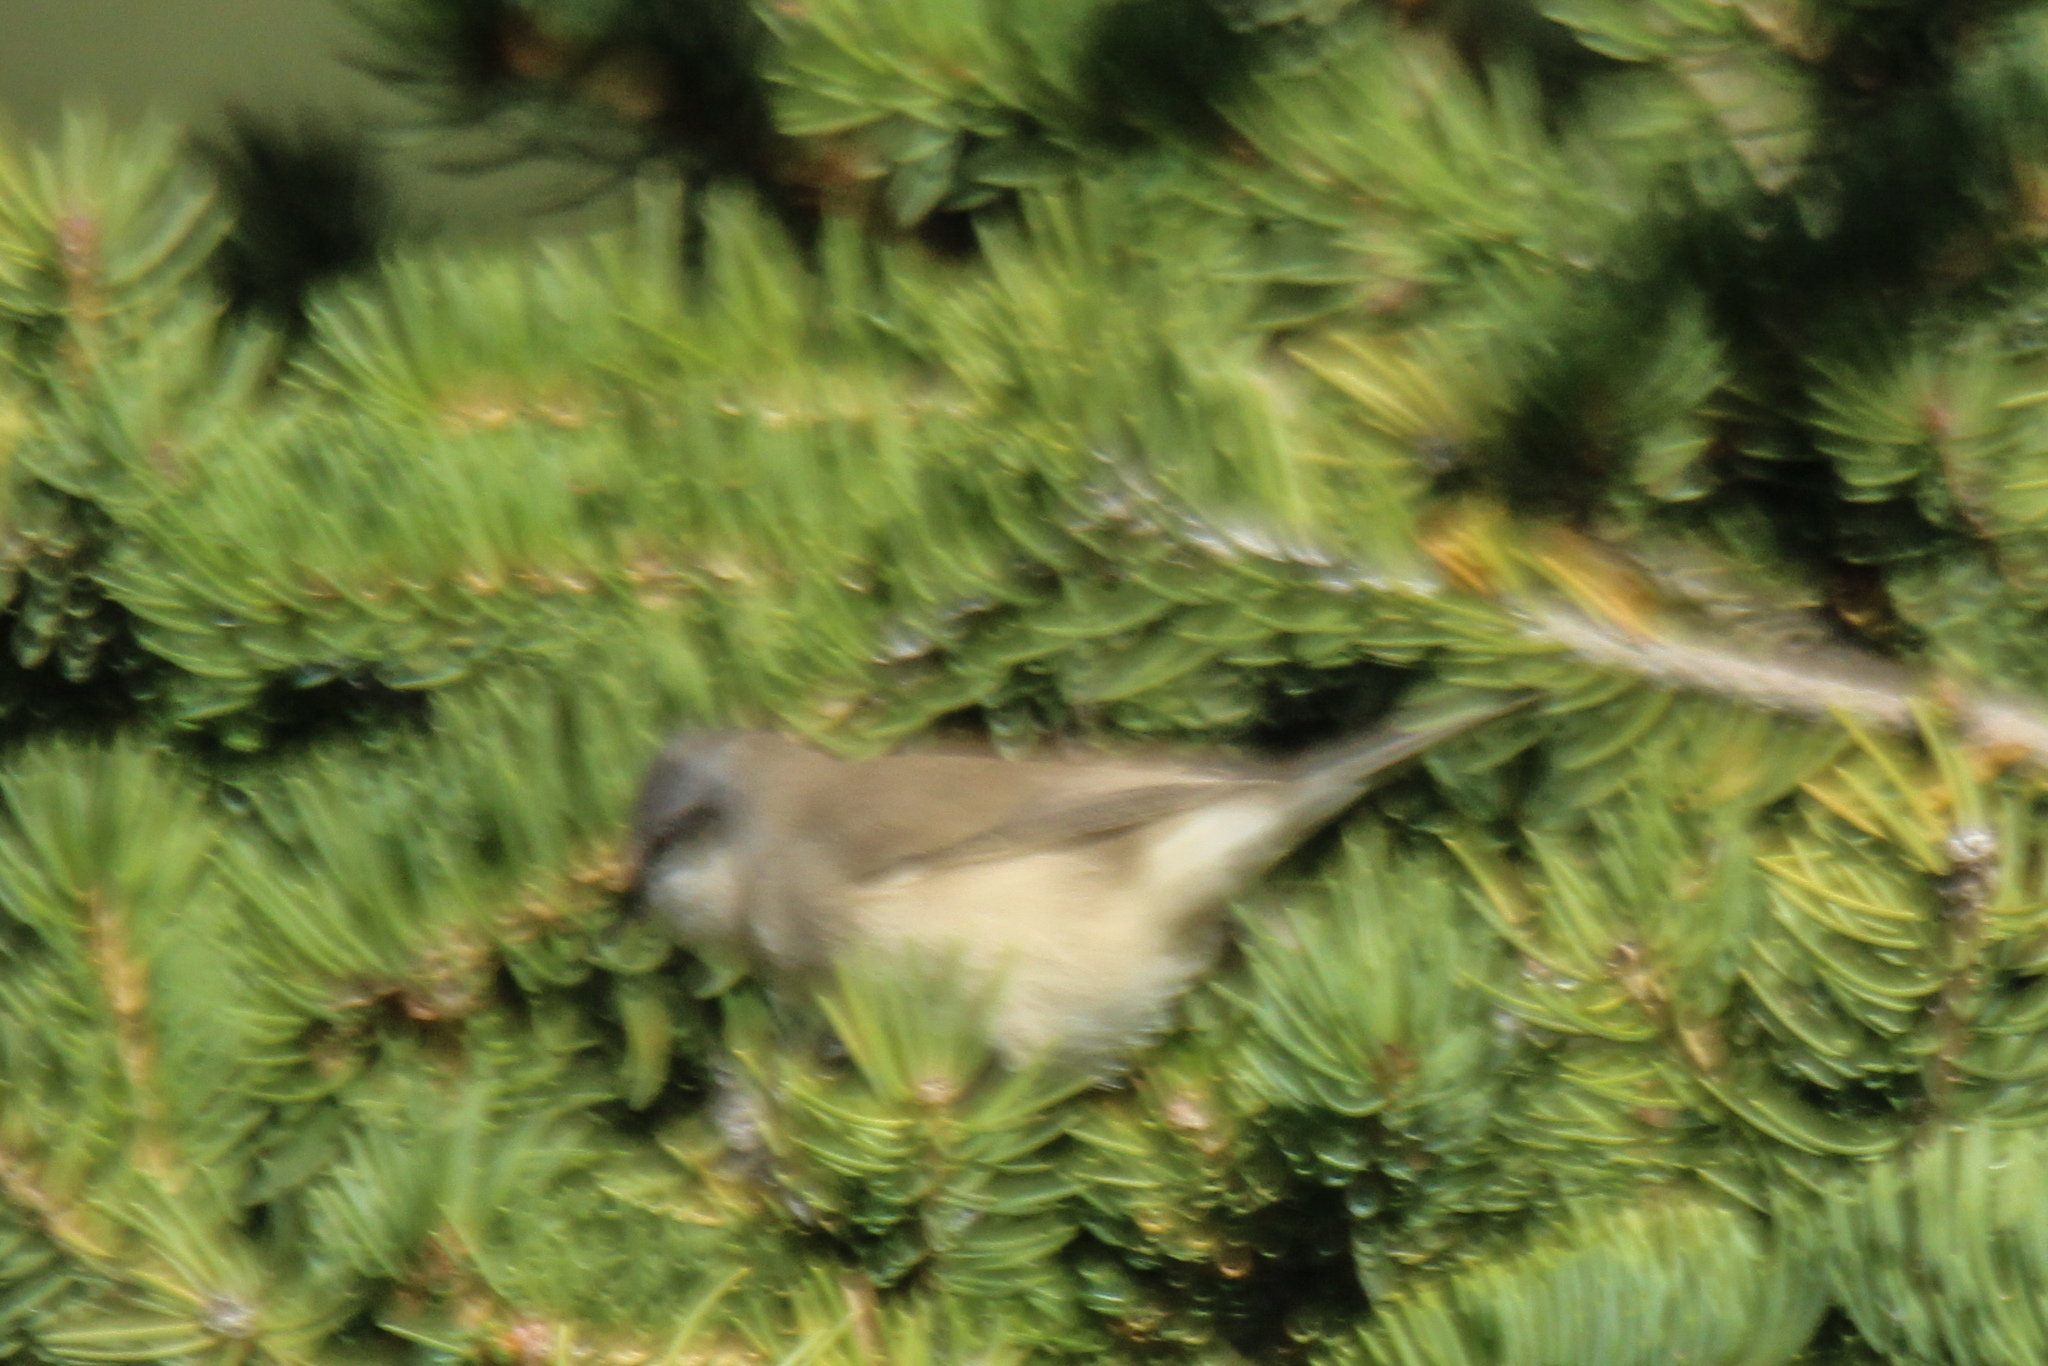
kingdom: Animalia
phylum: Chordata
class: Aves
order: Passeriformes
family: Sylviidae
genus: Sylvia
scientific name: Sylvia curruca
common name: Lesser whitethroat
